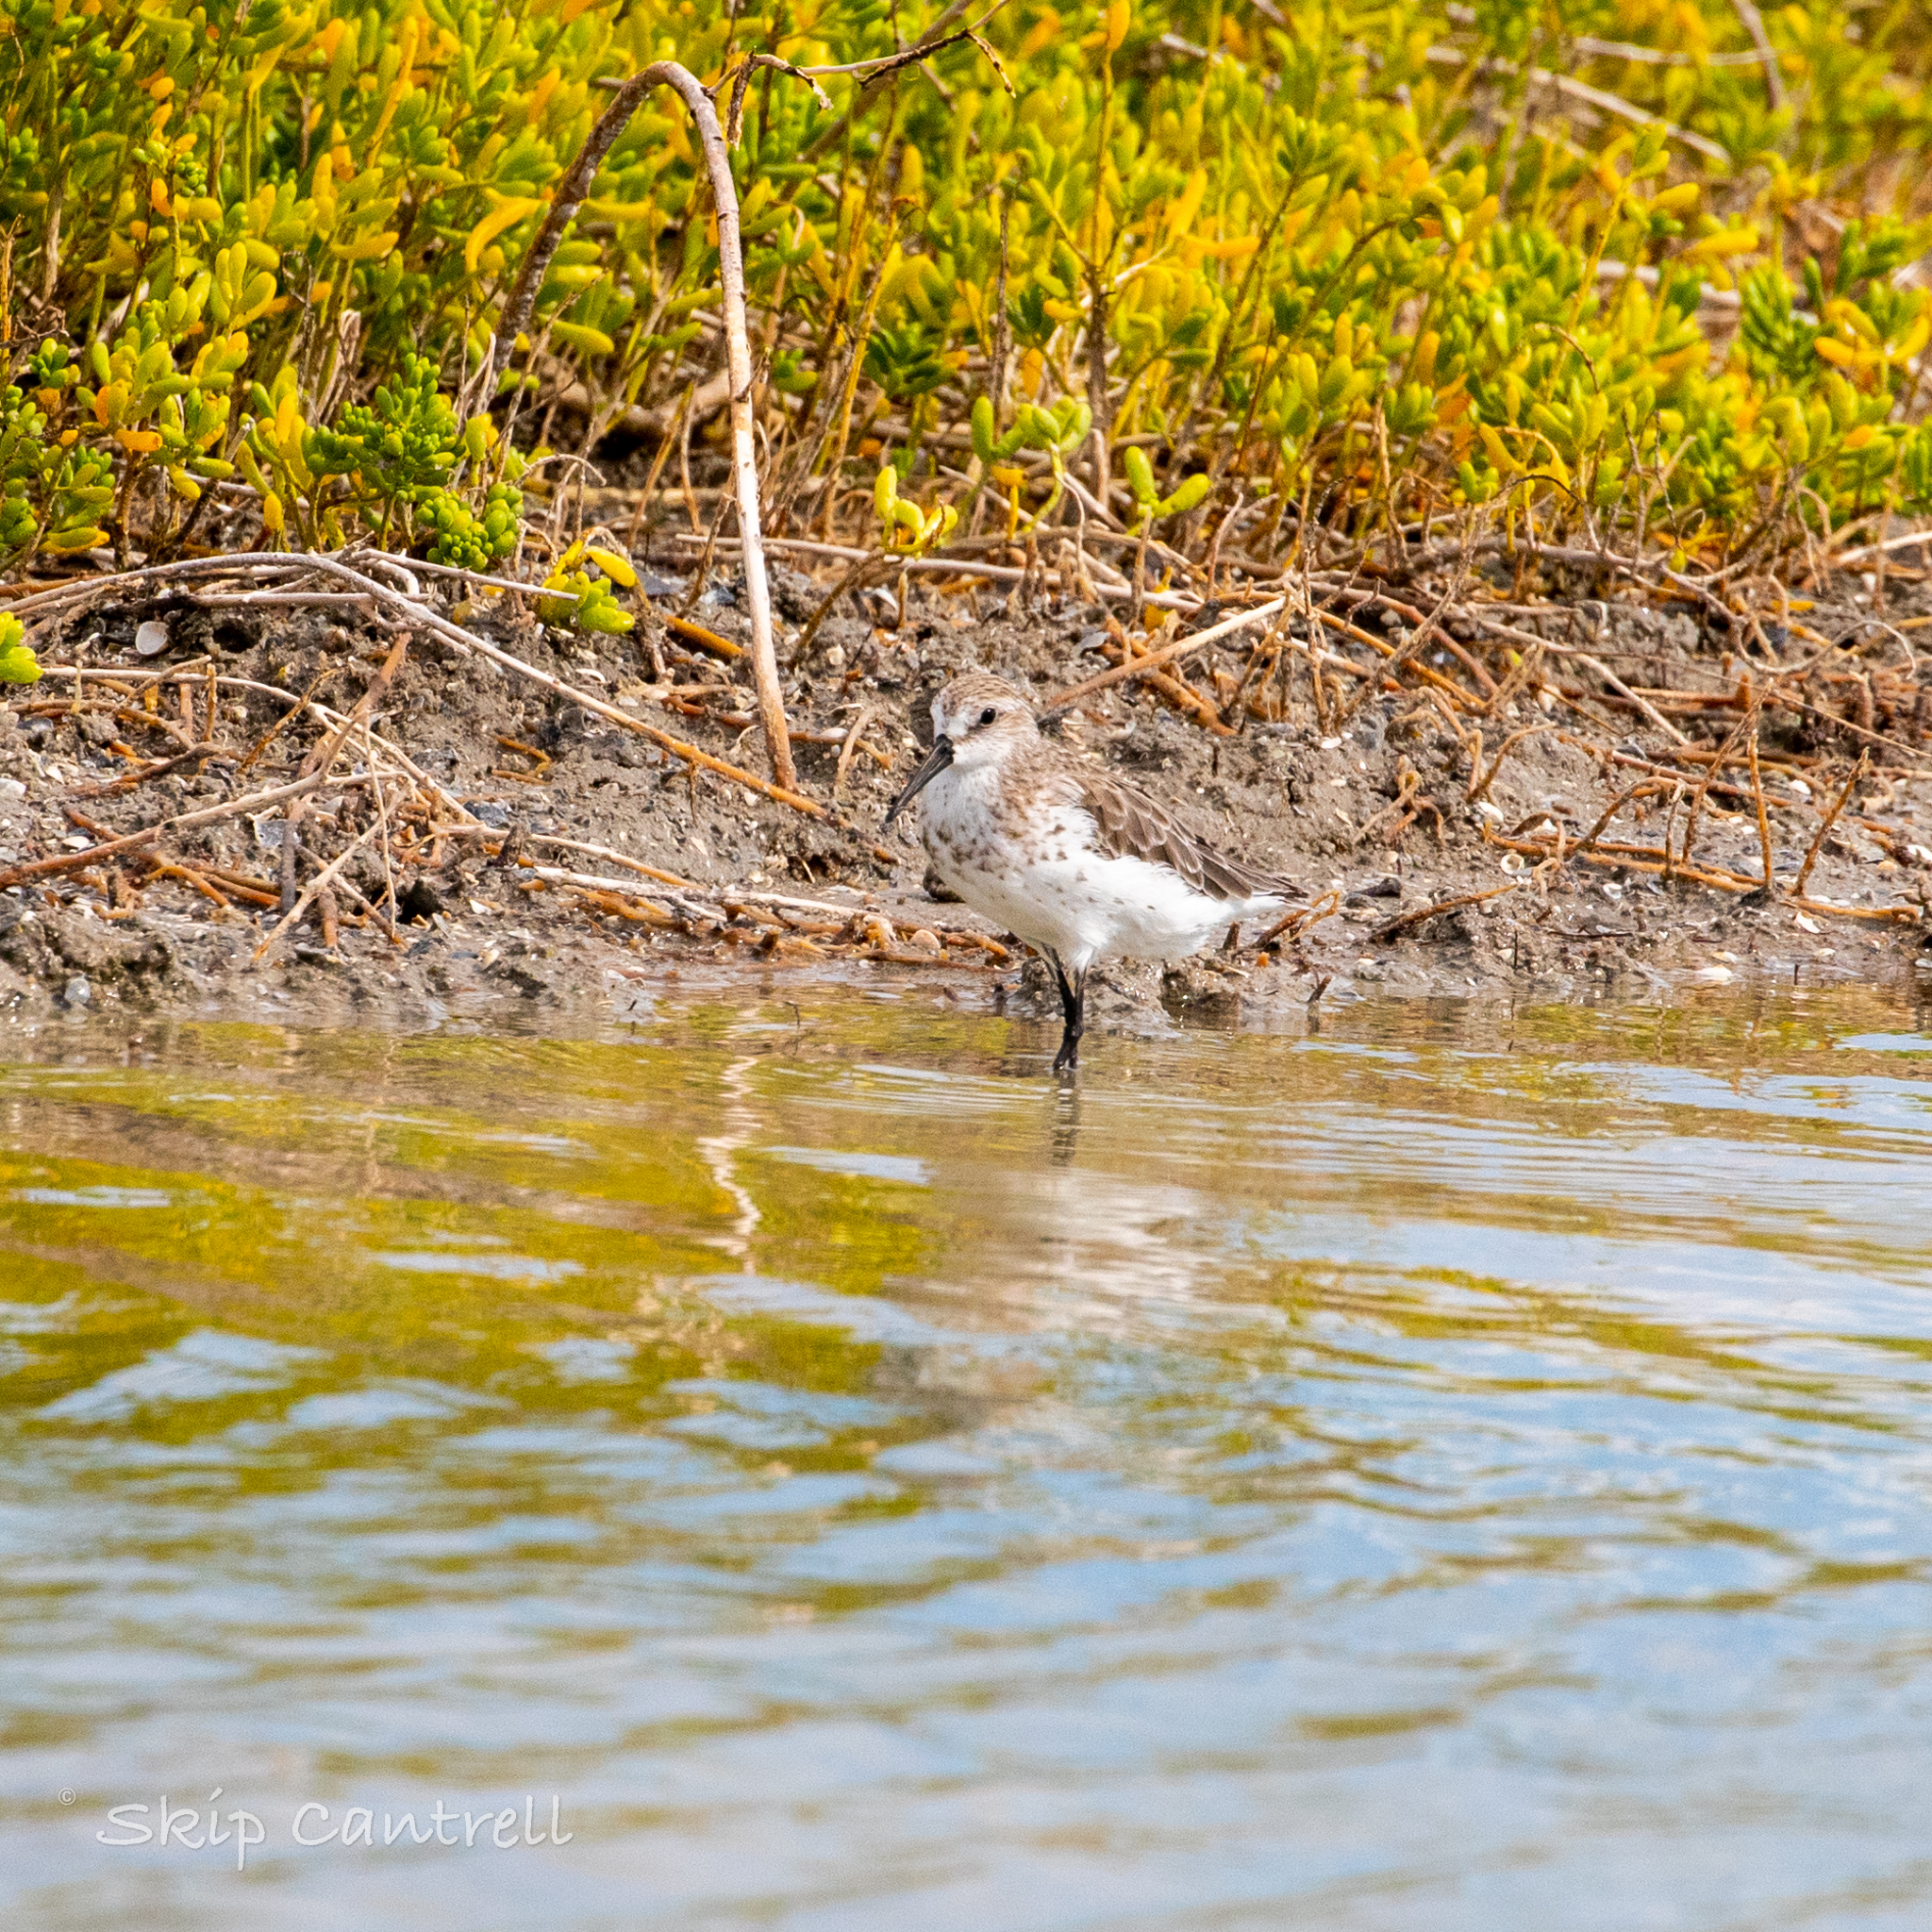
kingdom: Animalia
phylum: Chordata
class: Aves
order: Charadriiformes
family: Scolopacidae
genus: Calidris
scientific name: Calidris mauri
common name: Western sandpiper
